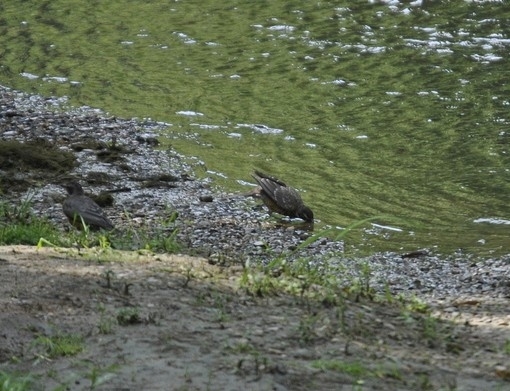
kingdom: Animalia
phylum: Chordata
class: Aves
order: Passeriformes
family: Turdidae
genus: Turdus
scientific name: Turdus migratorius
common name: American robin
